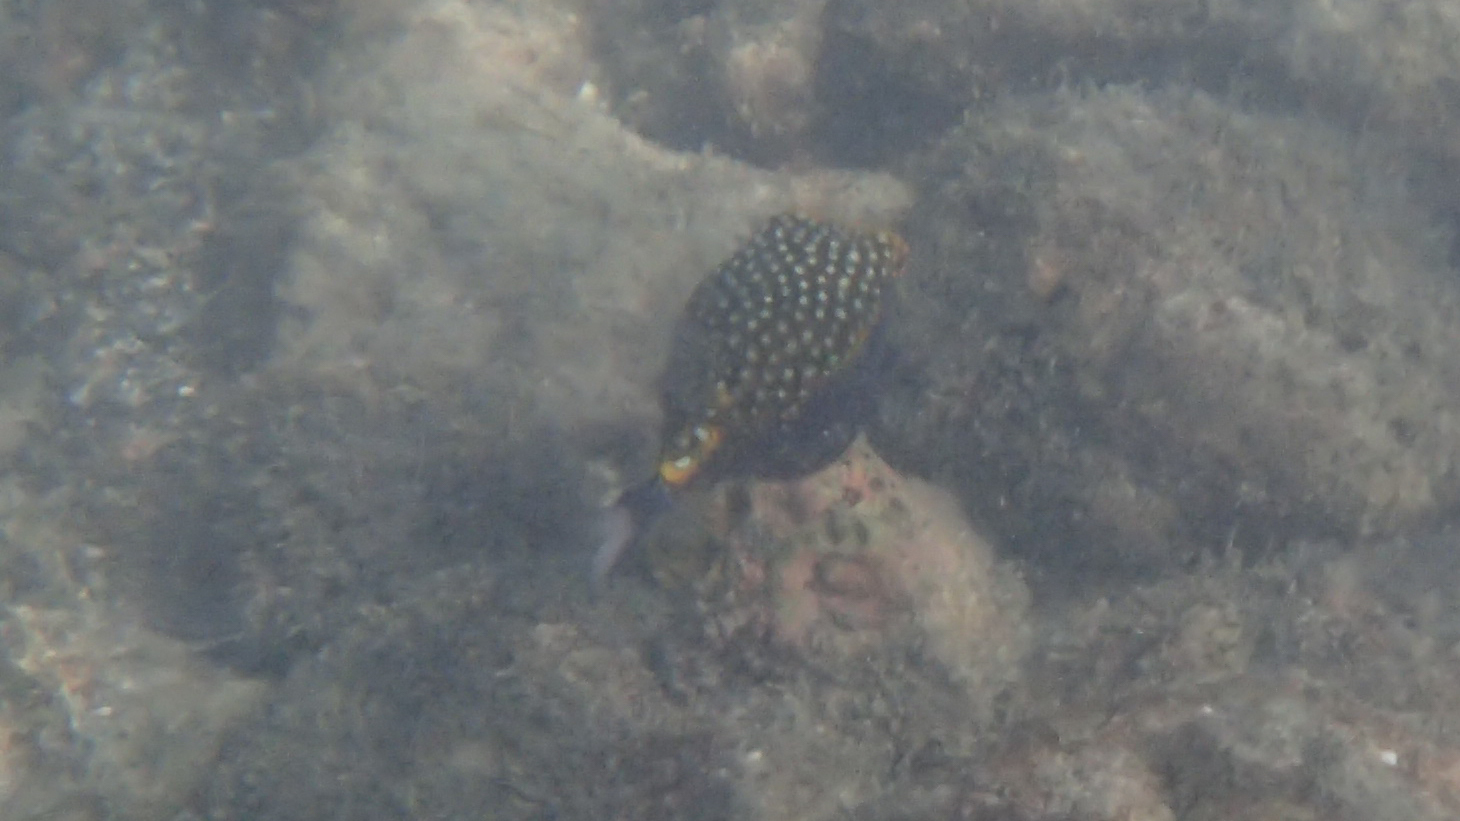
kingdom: Animalia
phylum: Chordata
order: Tetraodontiformes
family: Ostraciidae
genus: Ostracion
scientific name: Ostracion meleagris
